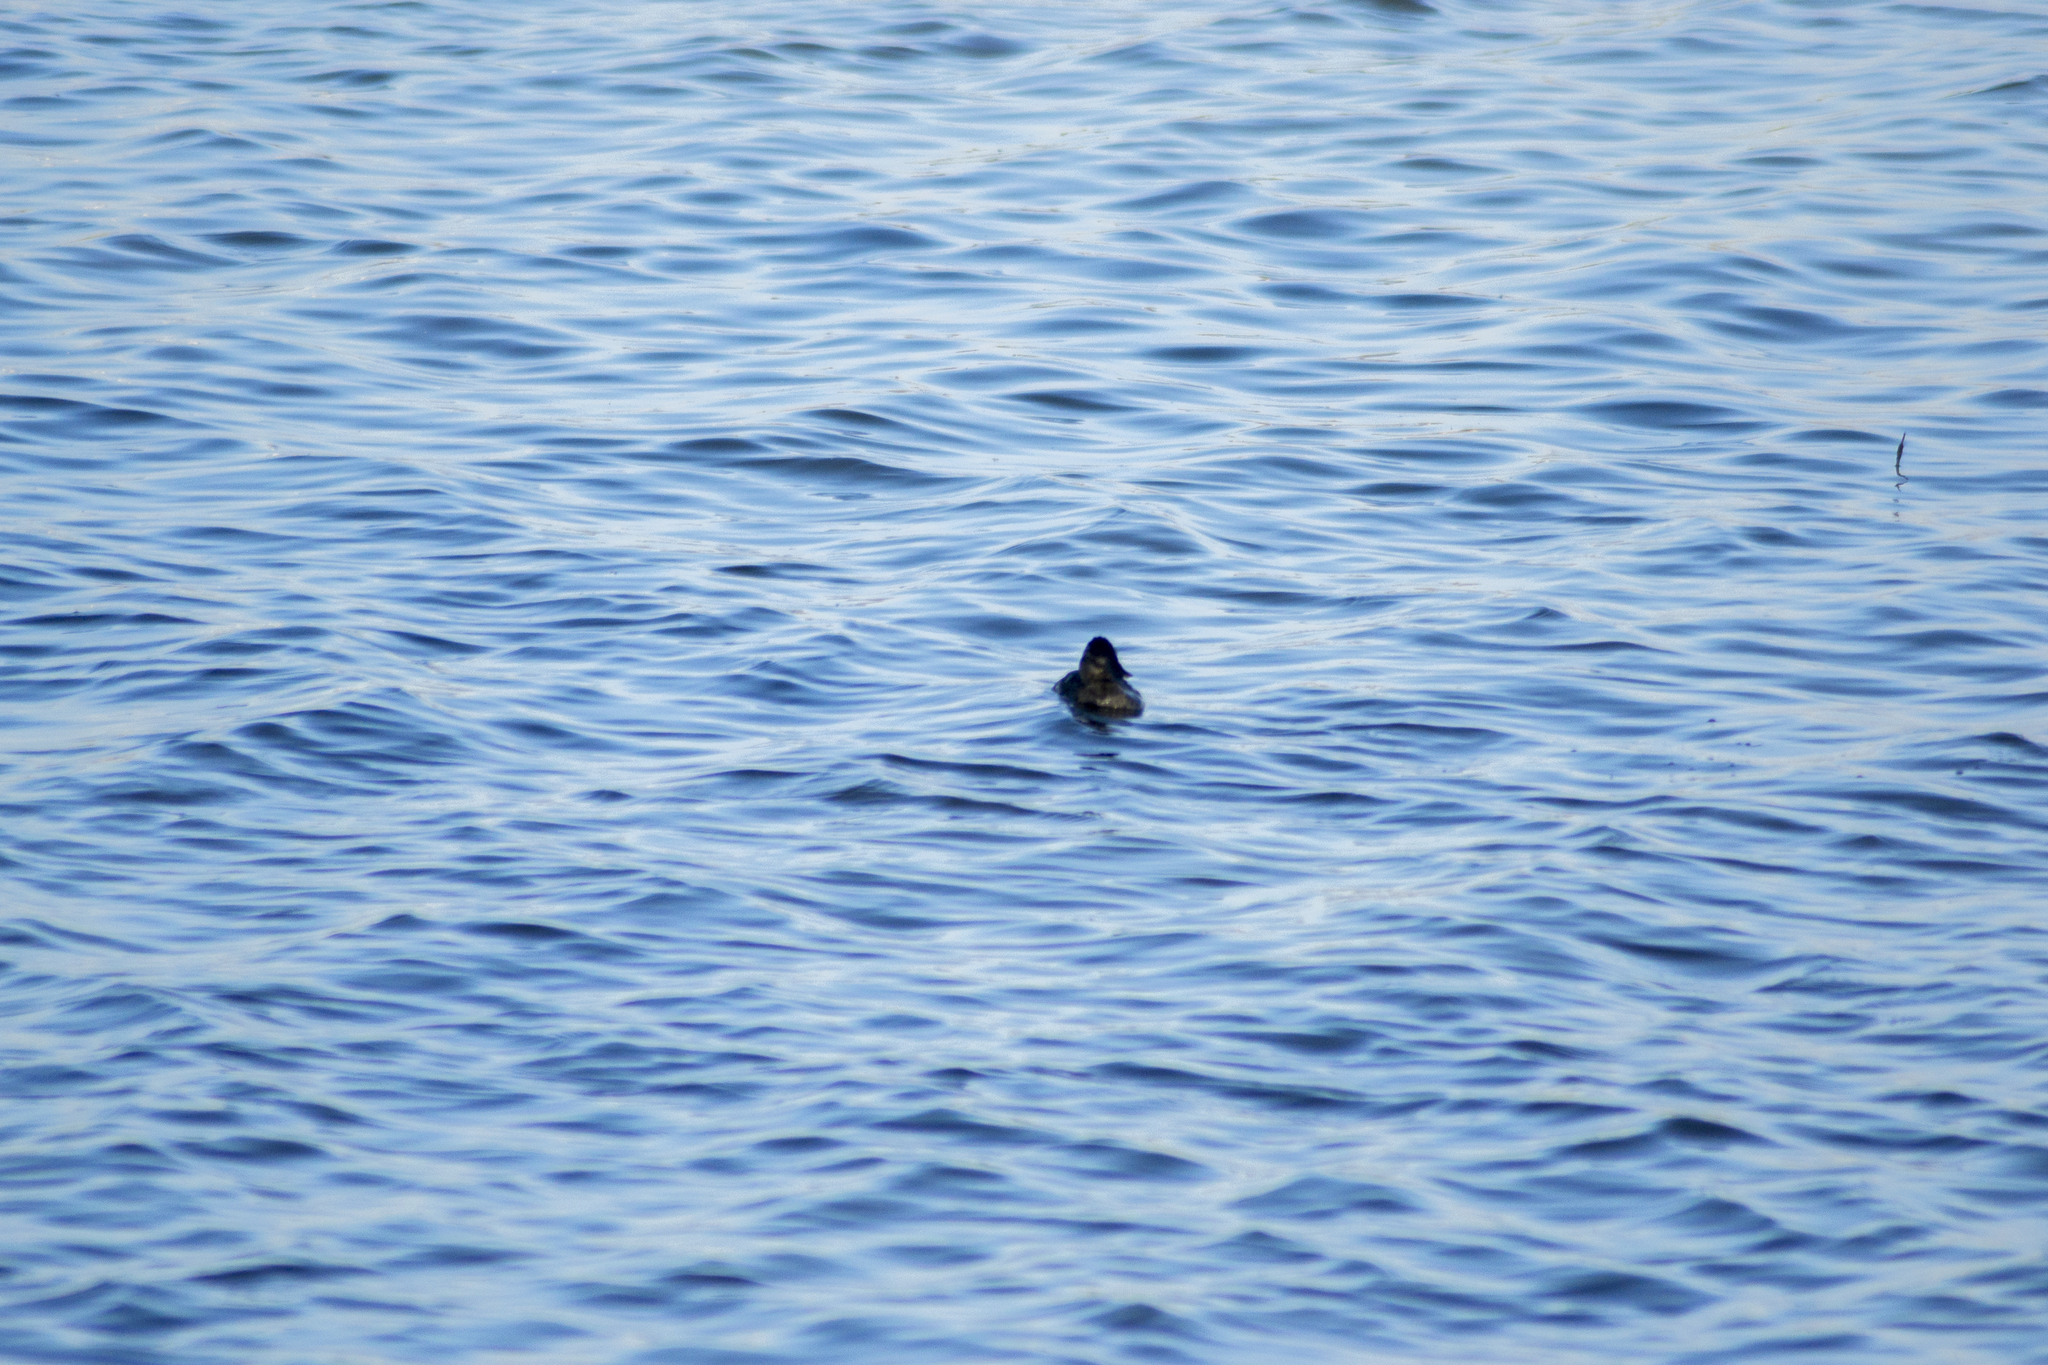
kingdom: Animalia
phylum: Chordata
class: Aves
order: Anseriformes
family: Anatidae
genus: Oxyura
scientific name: Oxyura jamaicensis
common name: Ruddy duck
